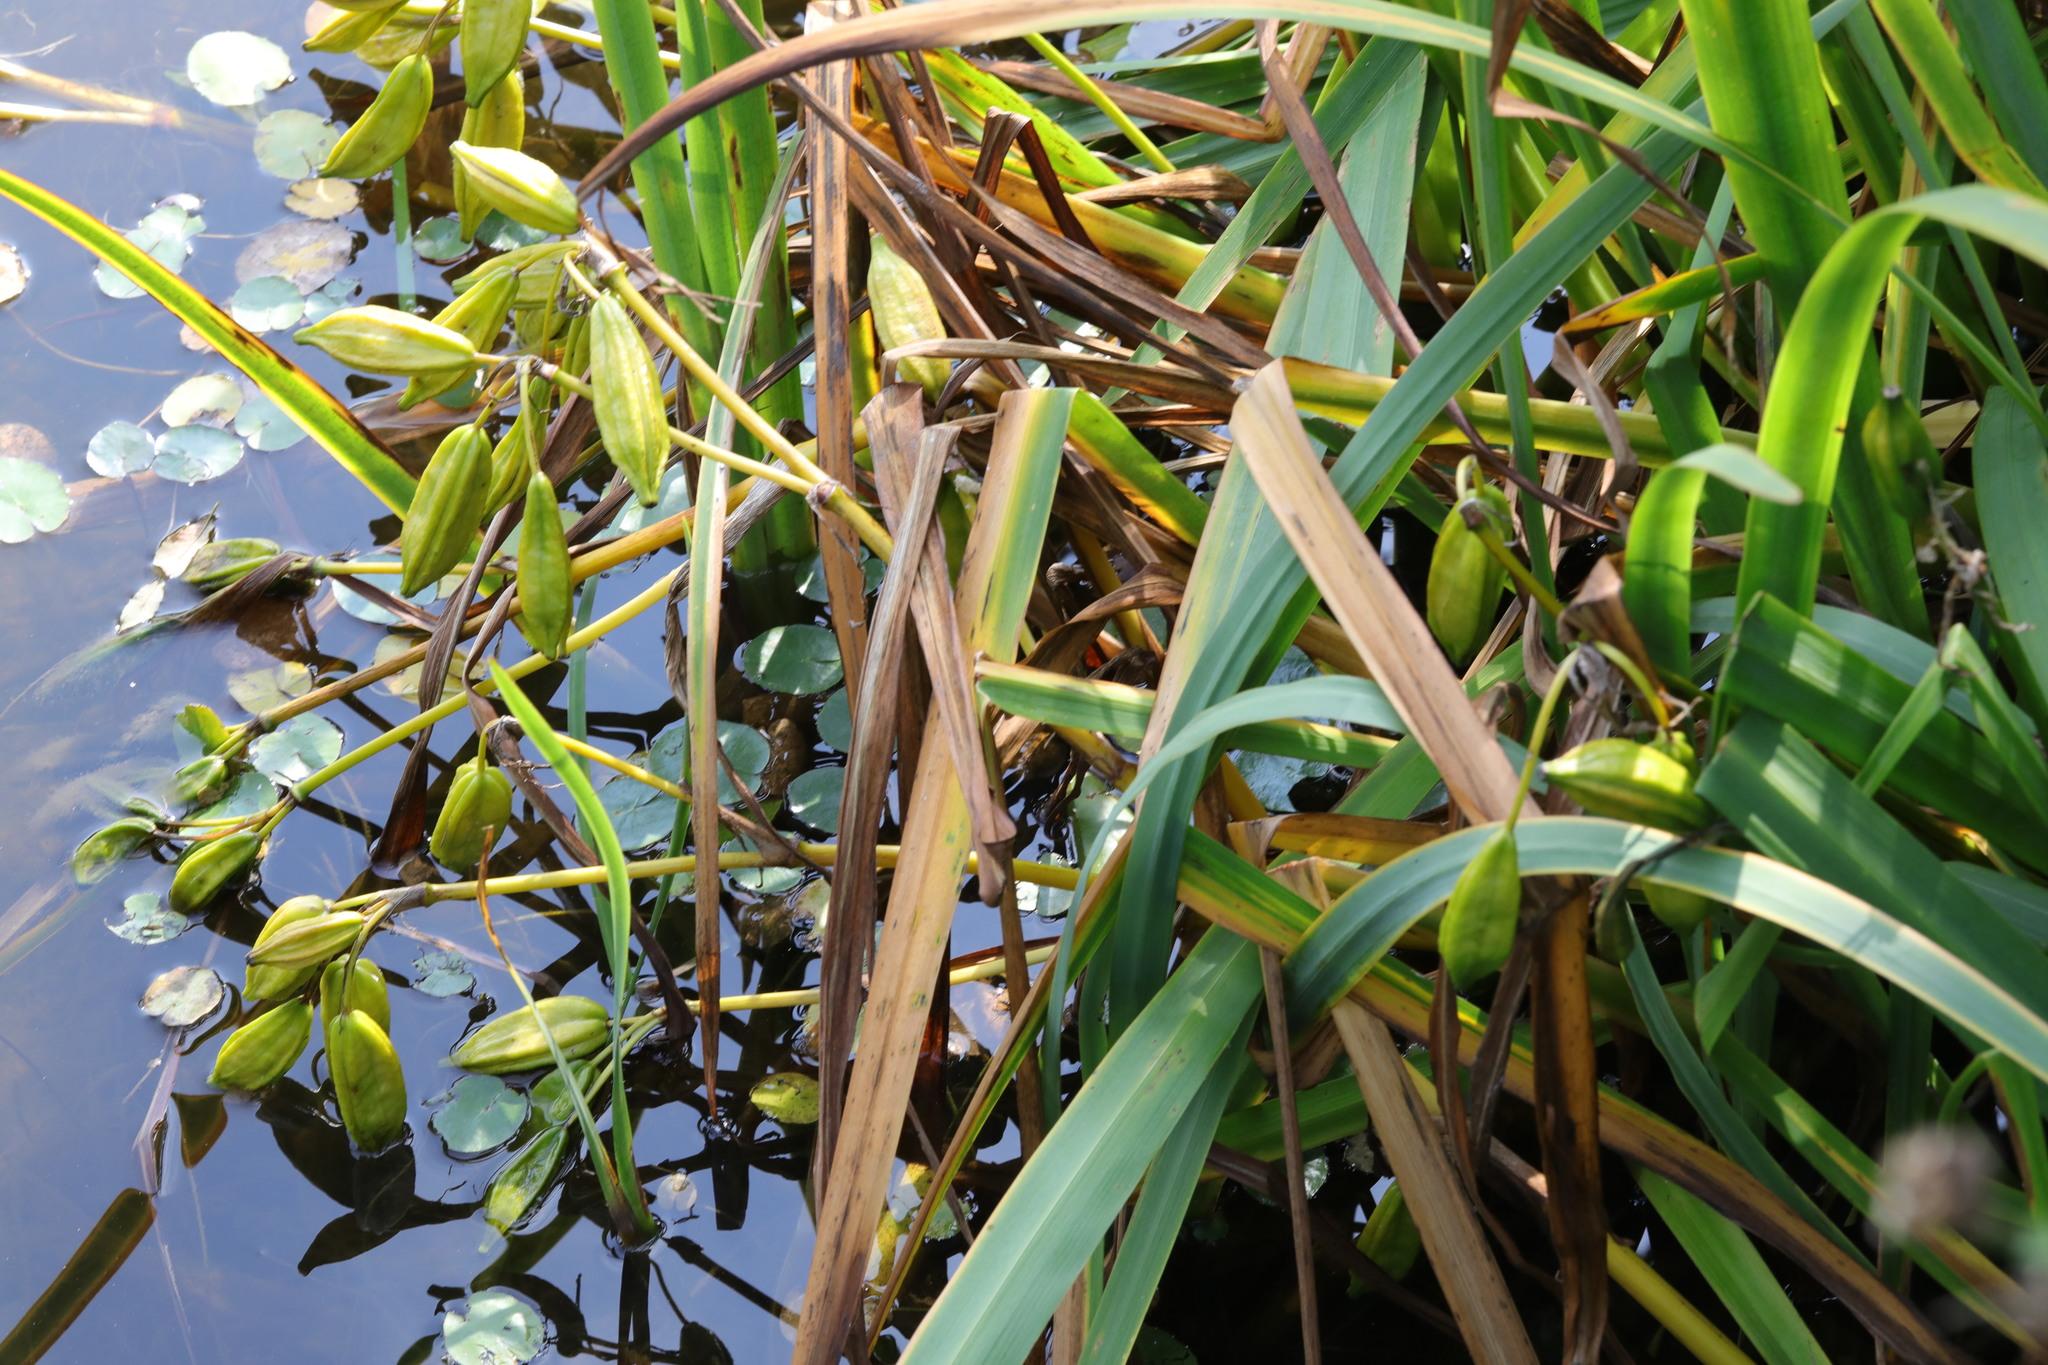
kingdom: Plantae
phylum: Tracheophyta
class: Liliopsida
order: Asparagales
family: Iridaceae
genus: Iris
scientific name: Iris pseudacorus
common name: Yellow flag
